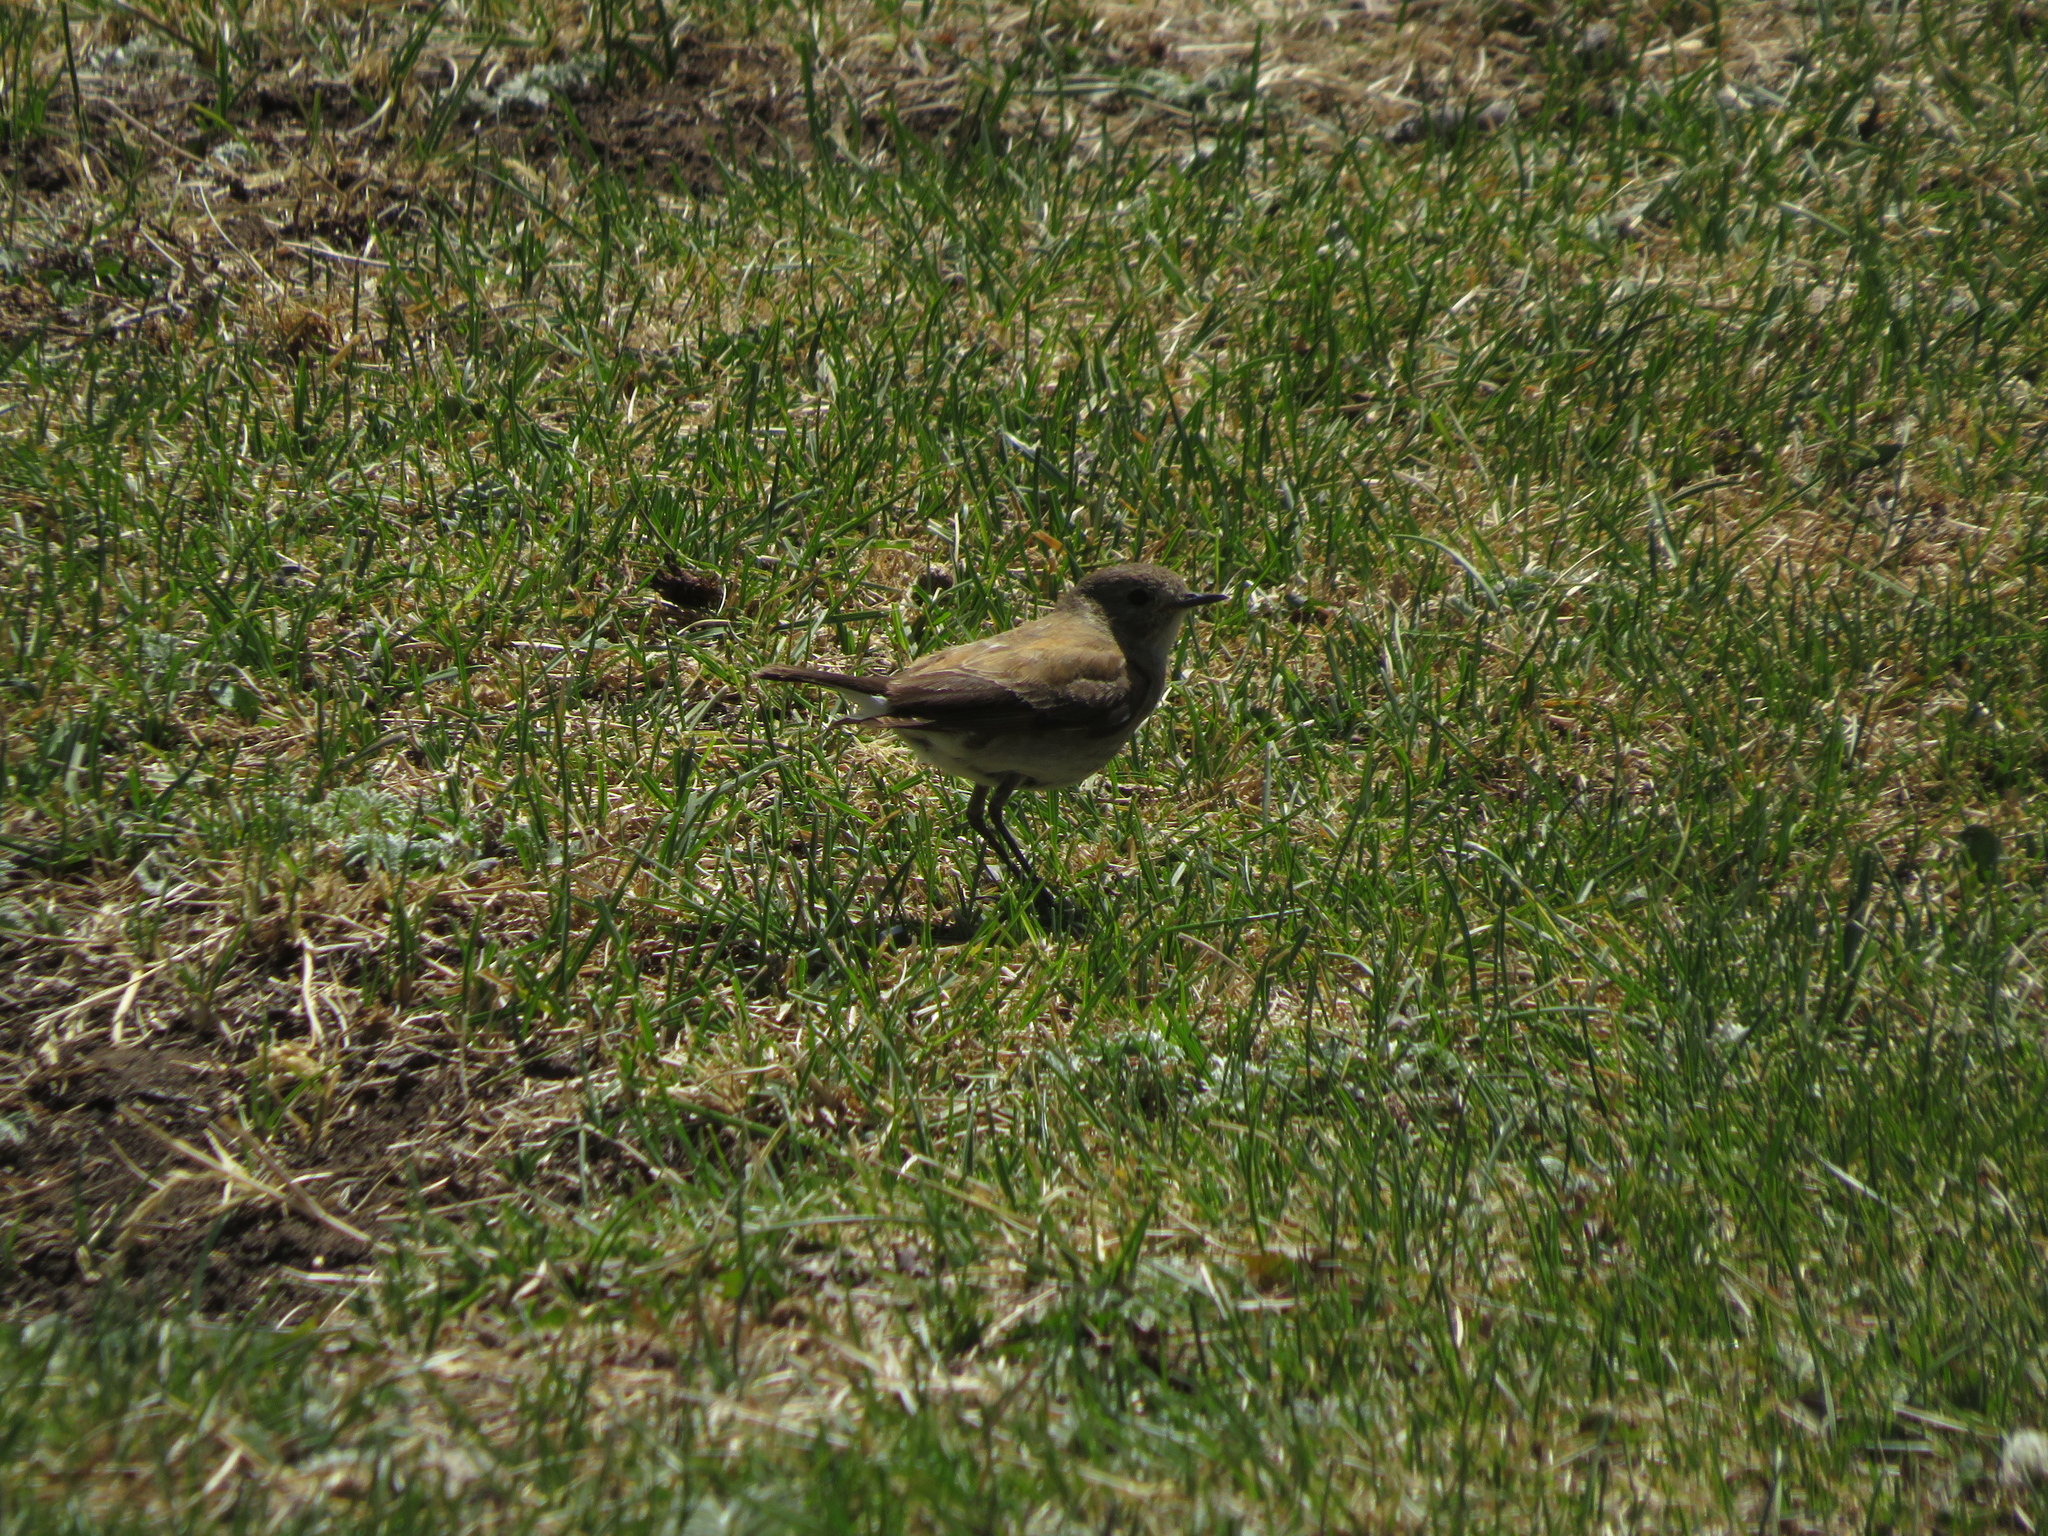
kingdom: Animalia
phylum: Chordata
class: Aves
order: Passeriformes
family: Tyrannidae
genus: Lessonia
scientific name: Lessonia rufa
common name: Austral negrito
